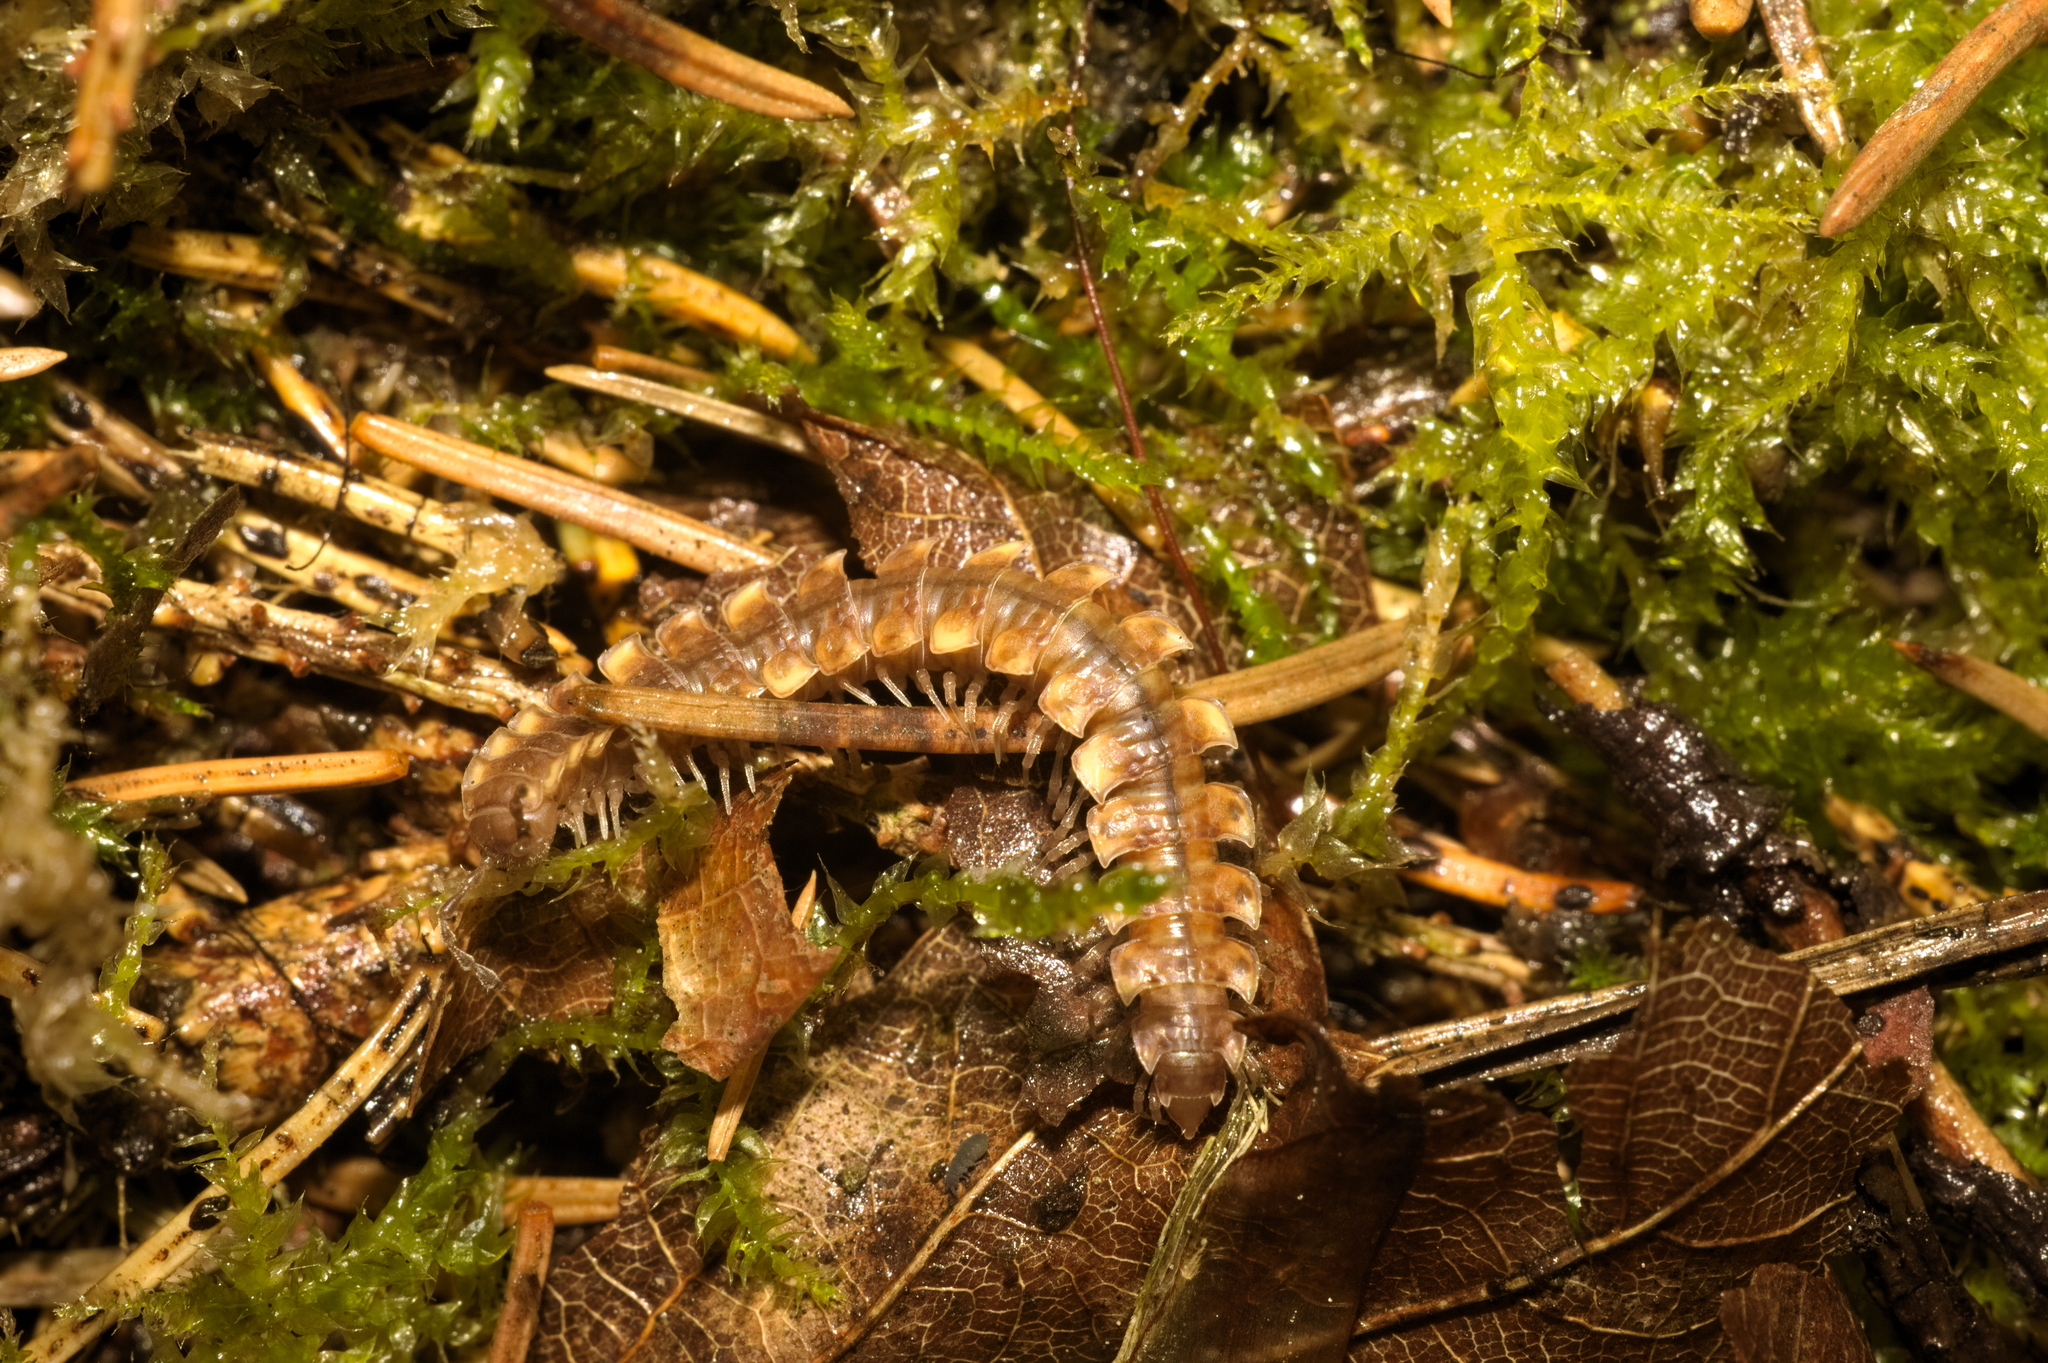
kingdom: Animalia
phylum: Arthropoda
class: Diplopoda
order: Polydesmida
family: Polydesmidae
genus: Polydesmus
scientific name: Polydesmus complanatus
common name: Flat-backed millipede
